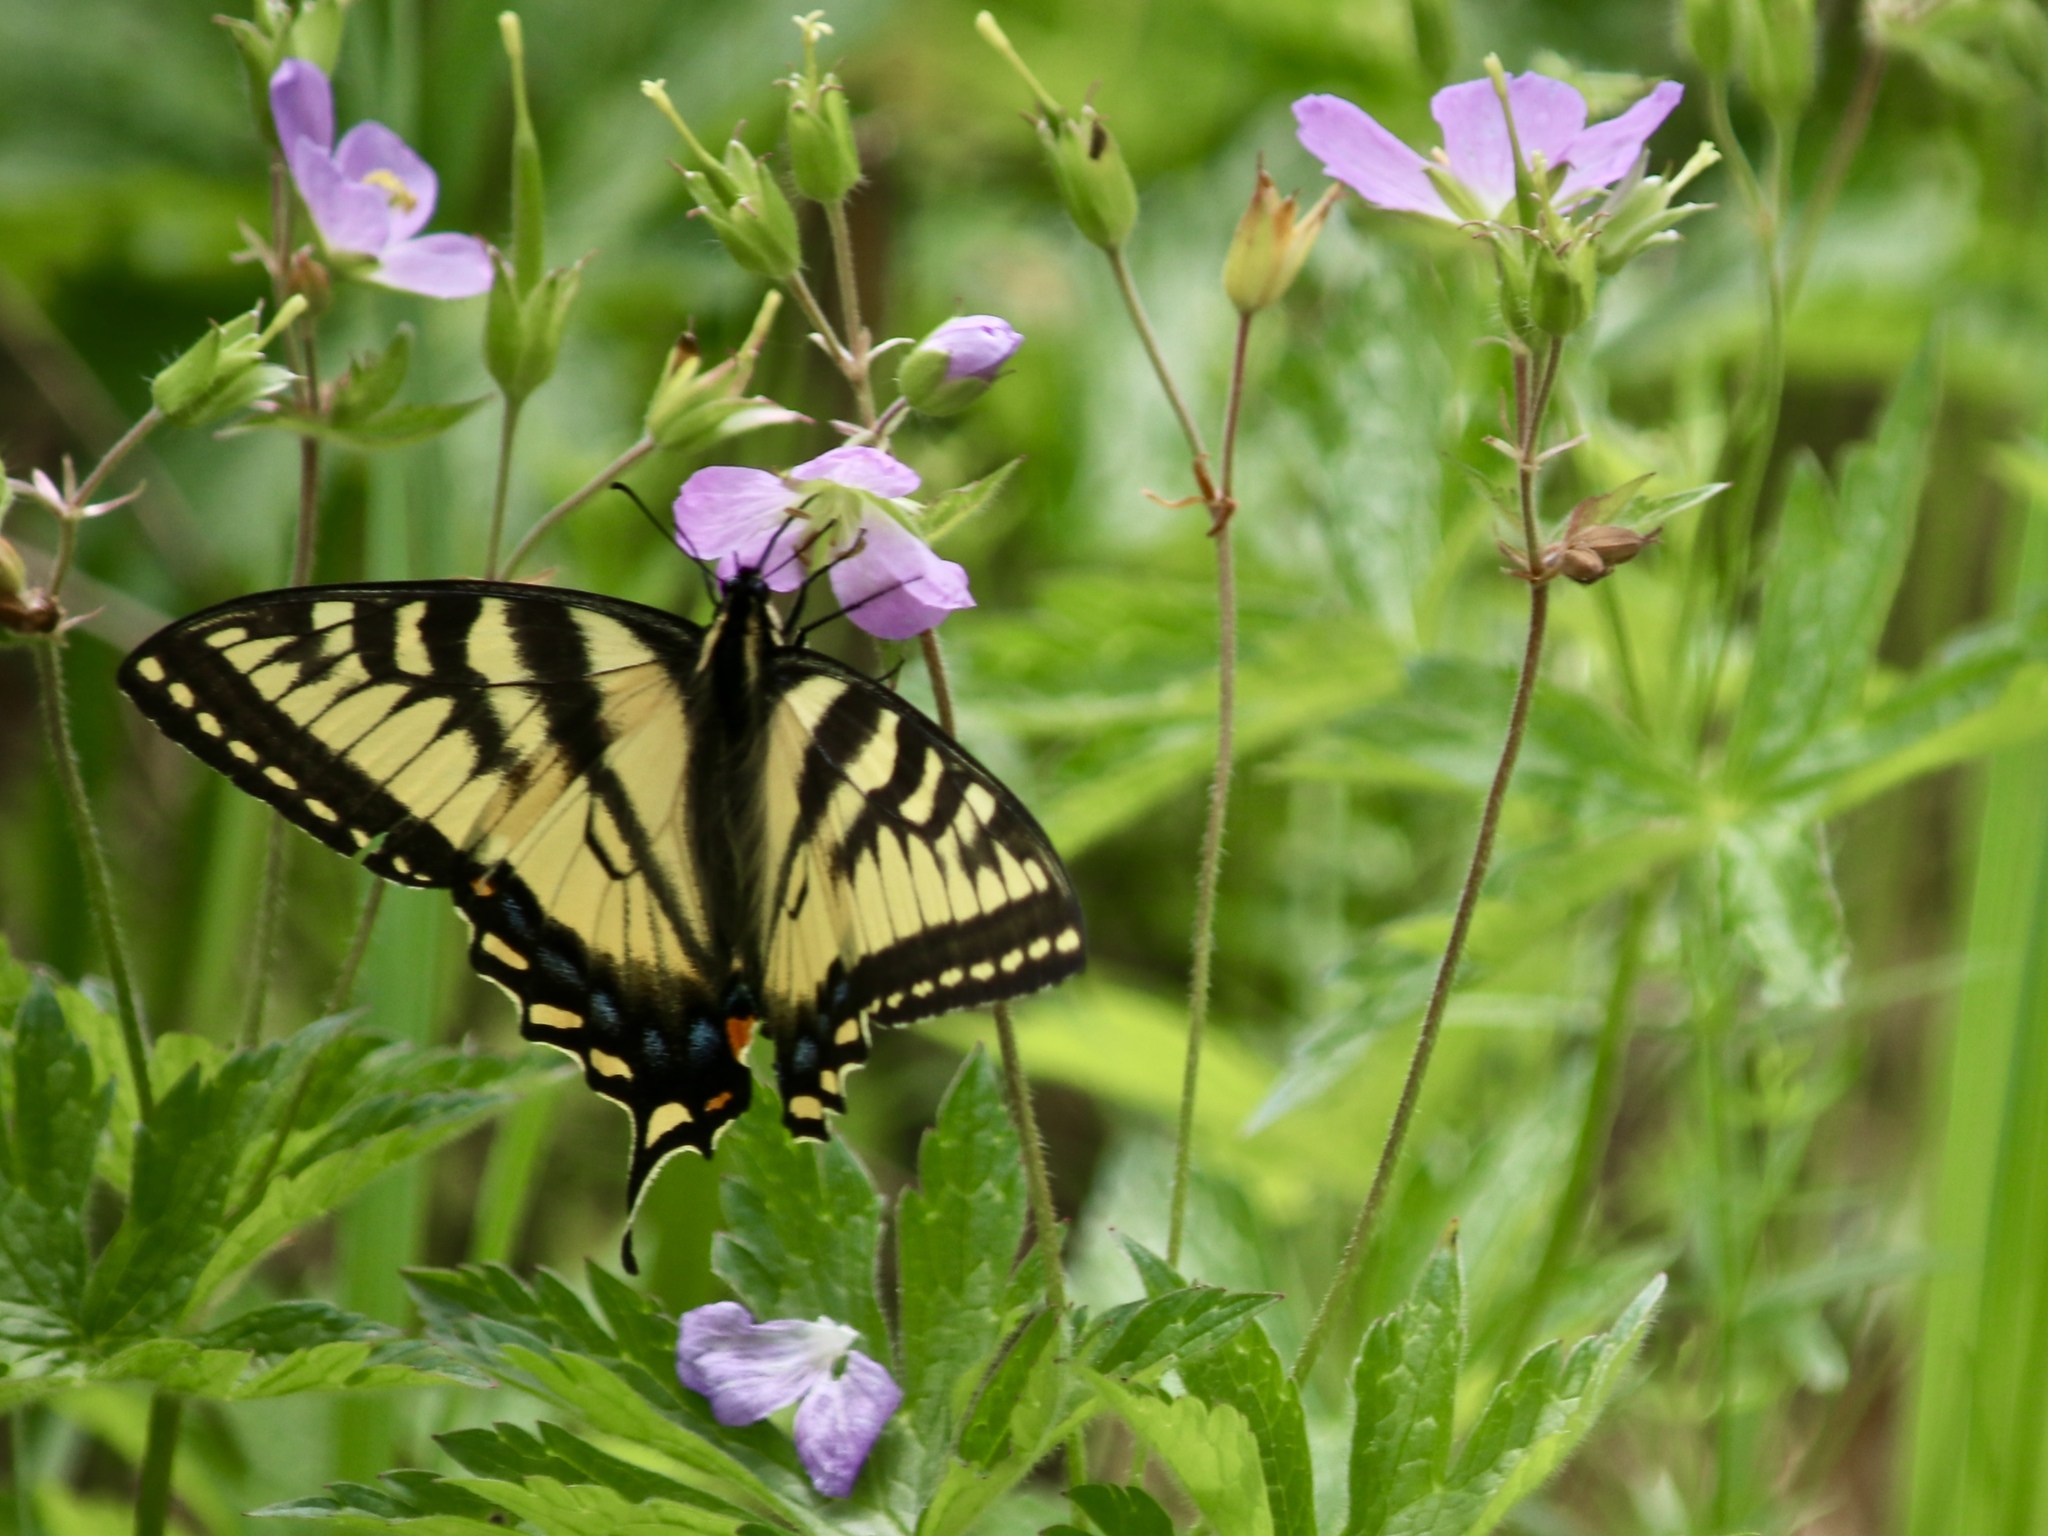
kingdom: Animalia
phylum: Arthropoda
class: Insecta
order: Lepidoptera
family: Papilionidae
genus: Papilio
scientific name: Papilio canadensis
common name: Canadian tiger swallowtail
